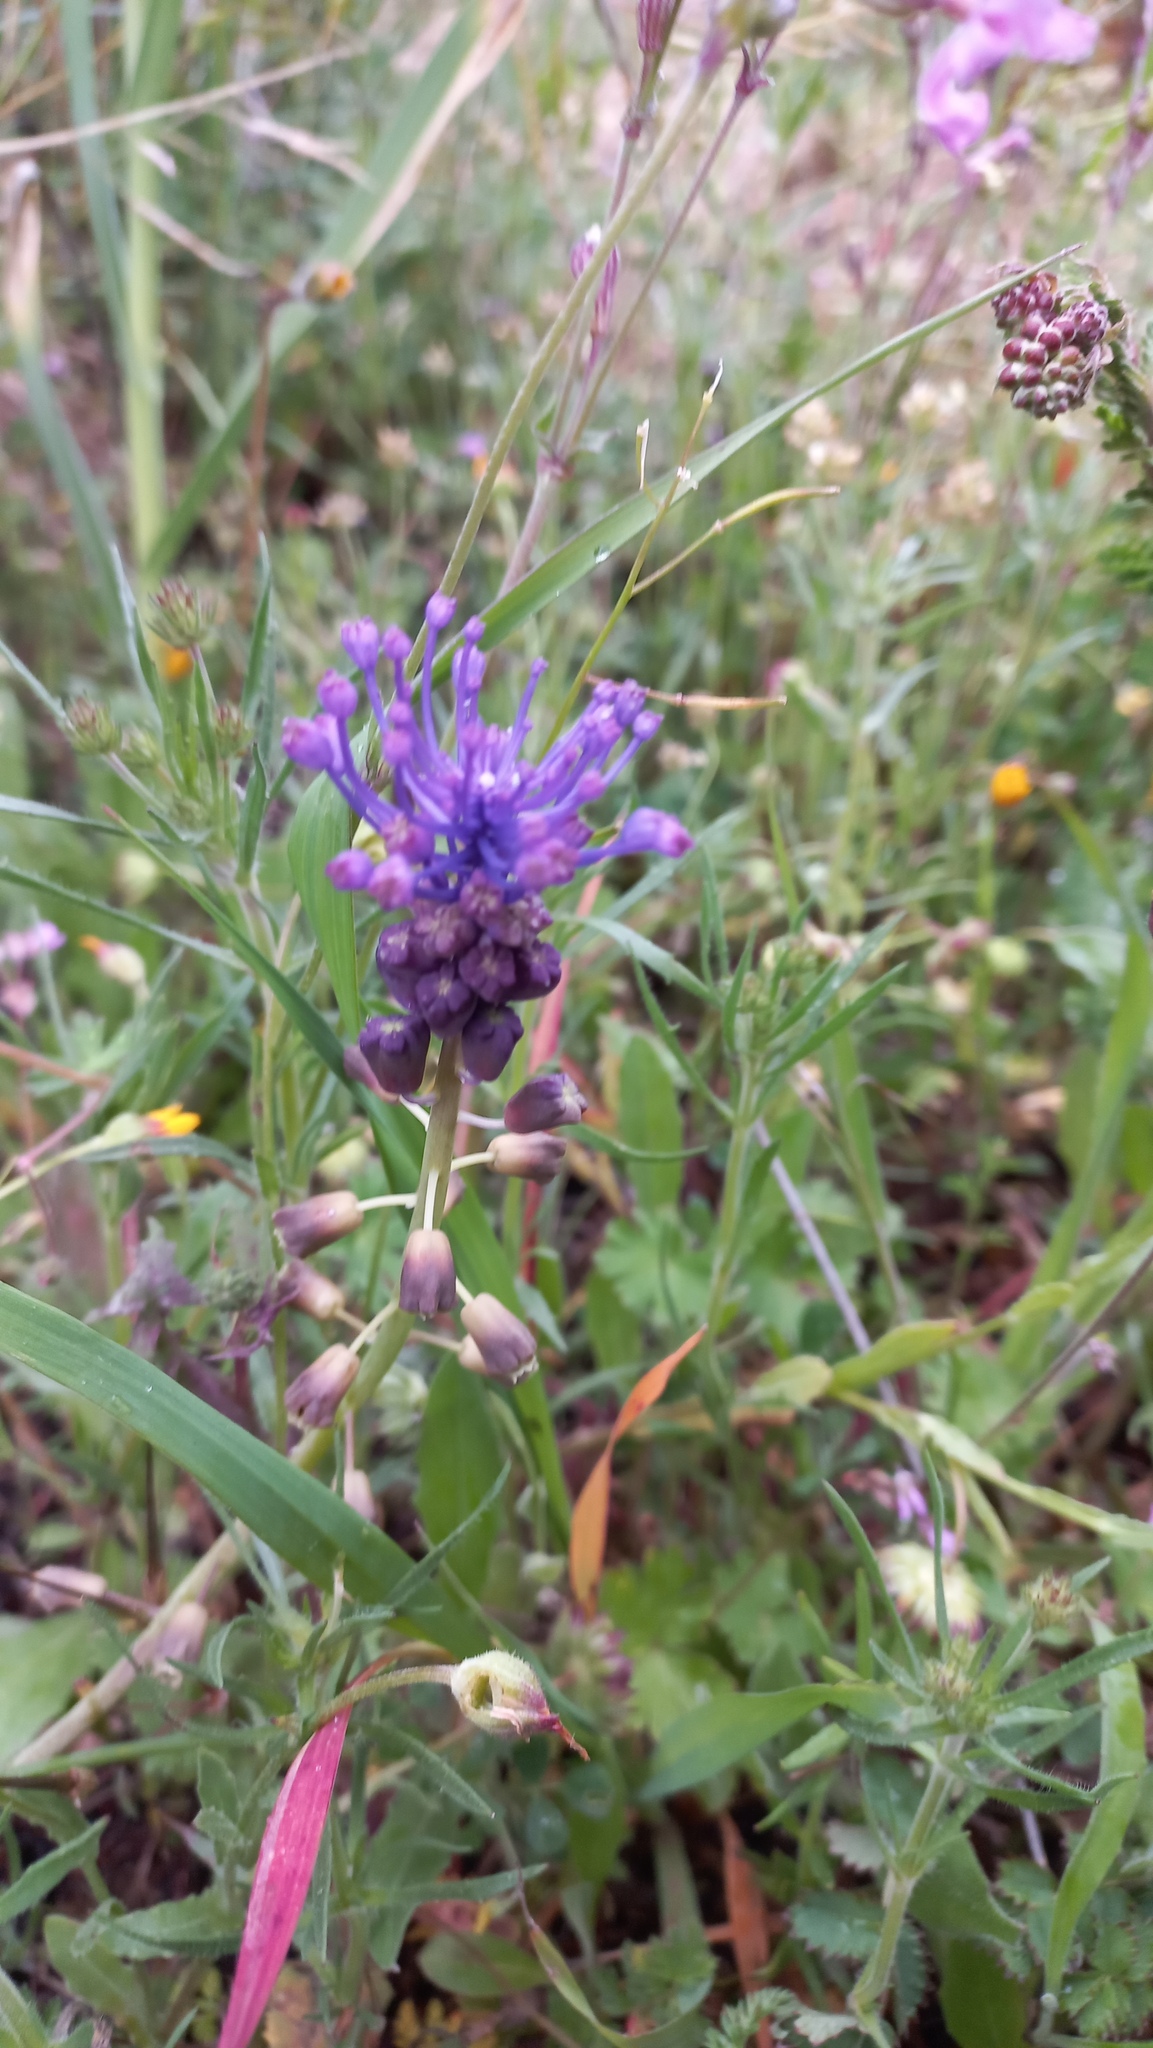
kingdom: Plantae
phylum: Tracheophyta
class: Liliopsida
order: Asparagales
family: Asparagaceae
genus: Muscari
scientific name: Muscari comosum
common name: Tassel hyacinth
